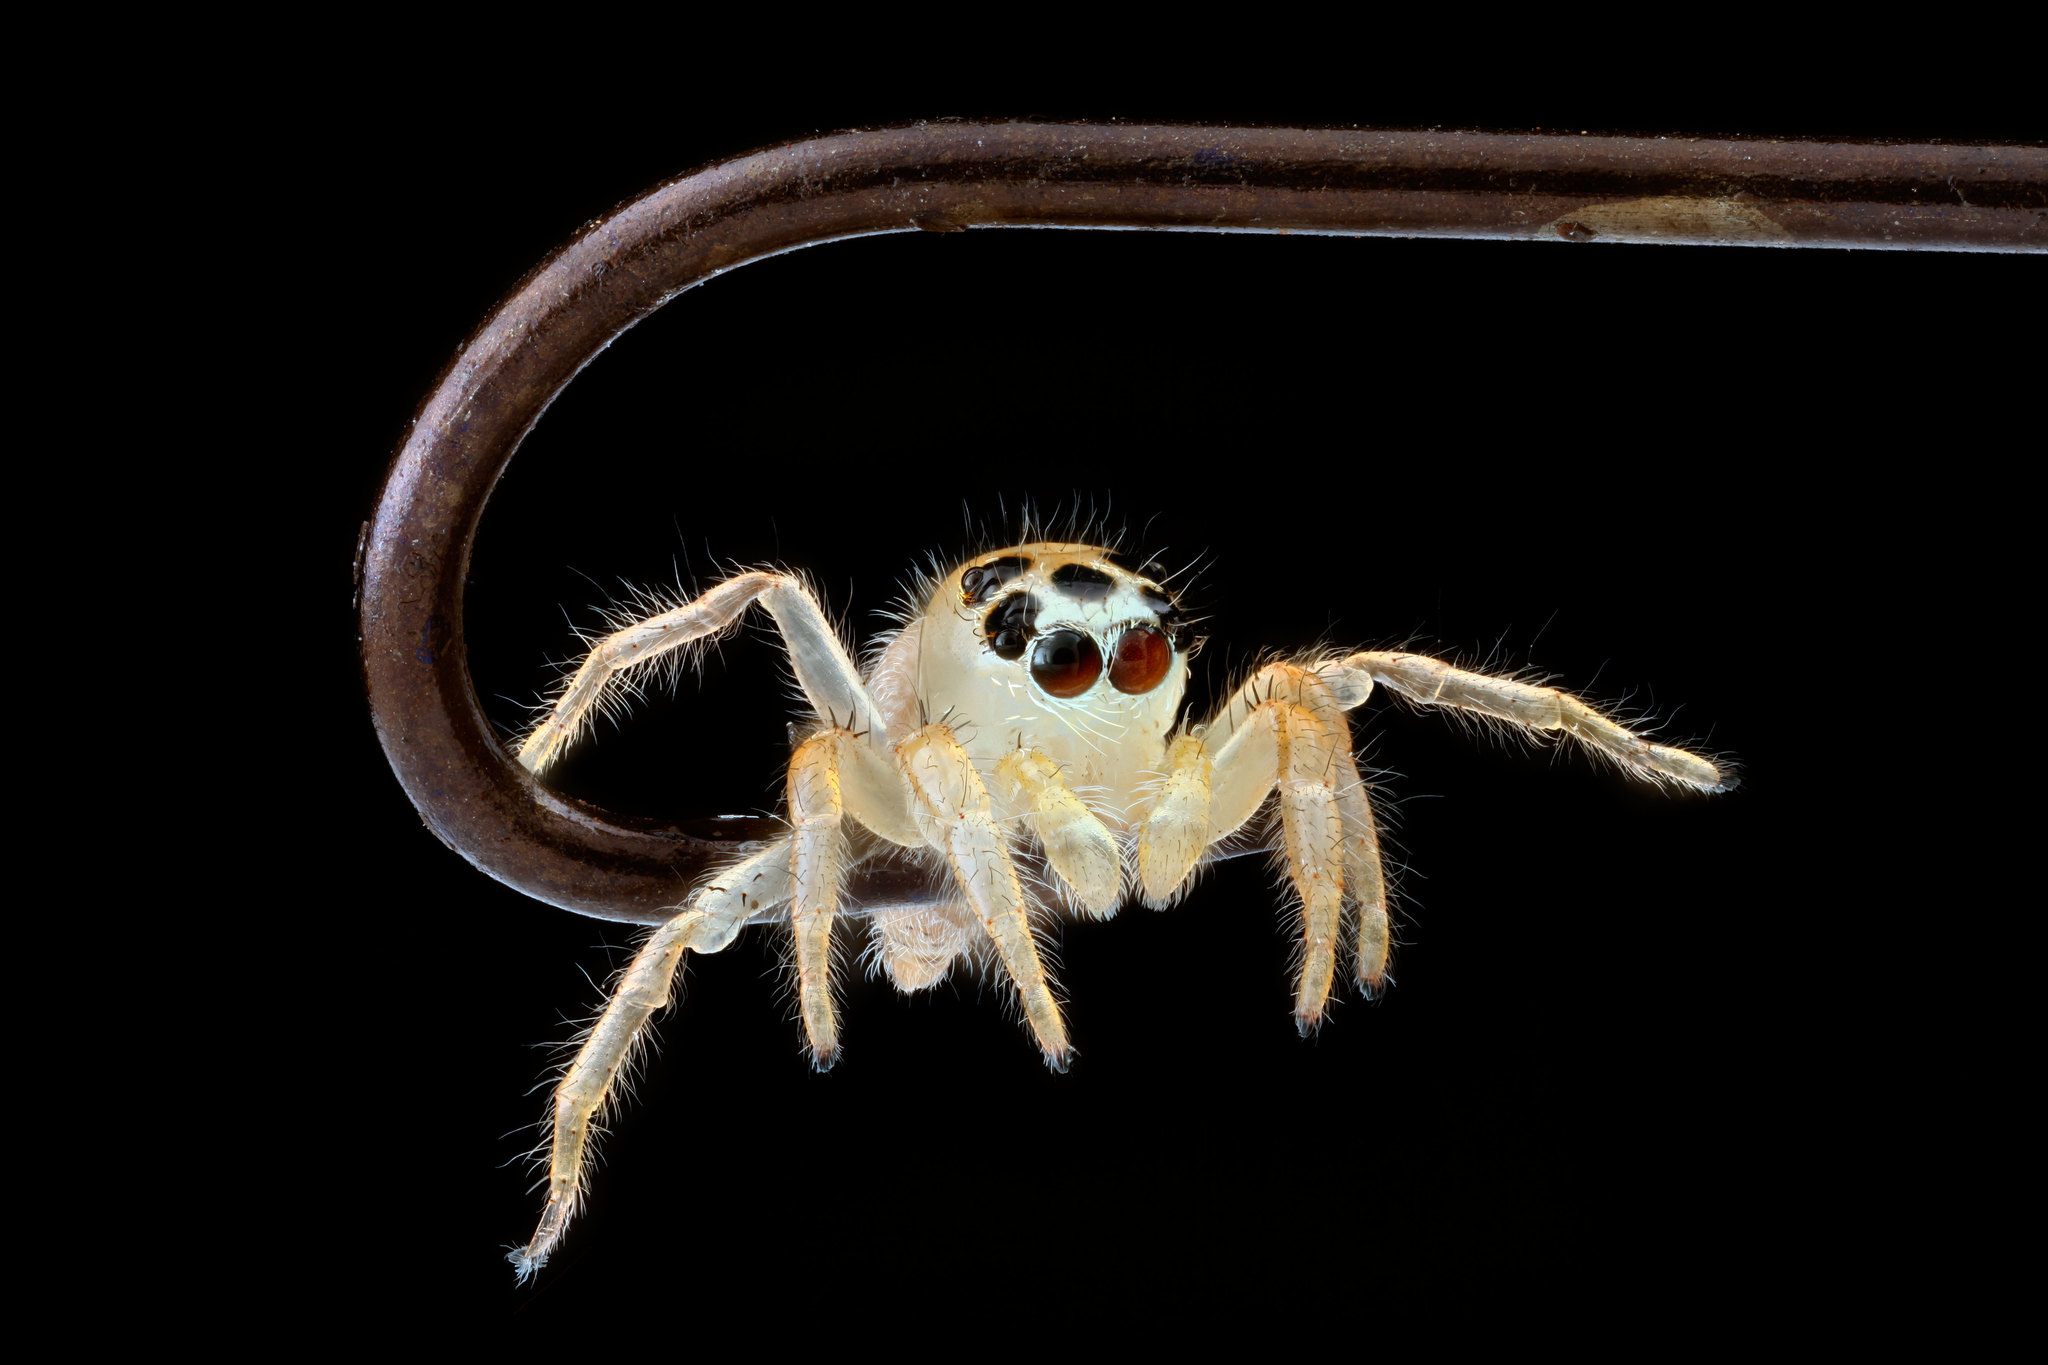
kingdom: Animalia
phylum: Arthropoda
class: Arachnida
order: Araneae
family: Salticidae
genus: Colonus
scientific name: Colonus sylvanus
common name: Jumping spiders
